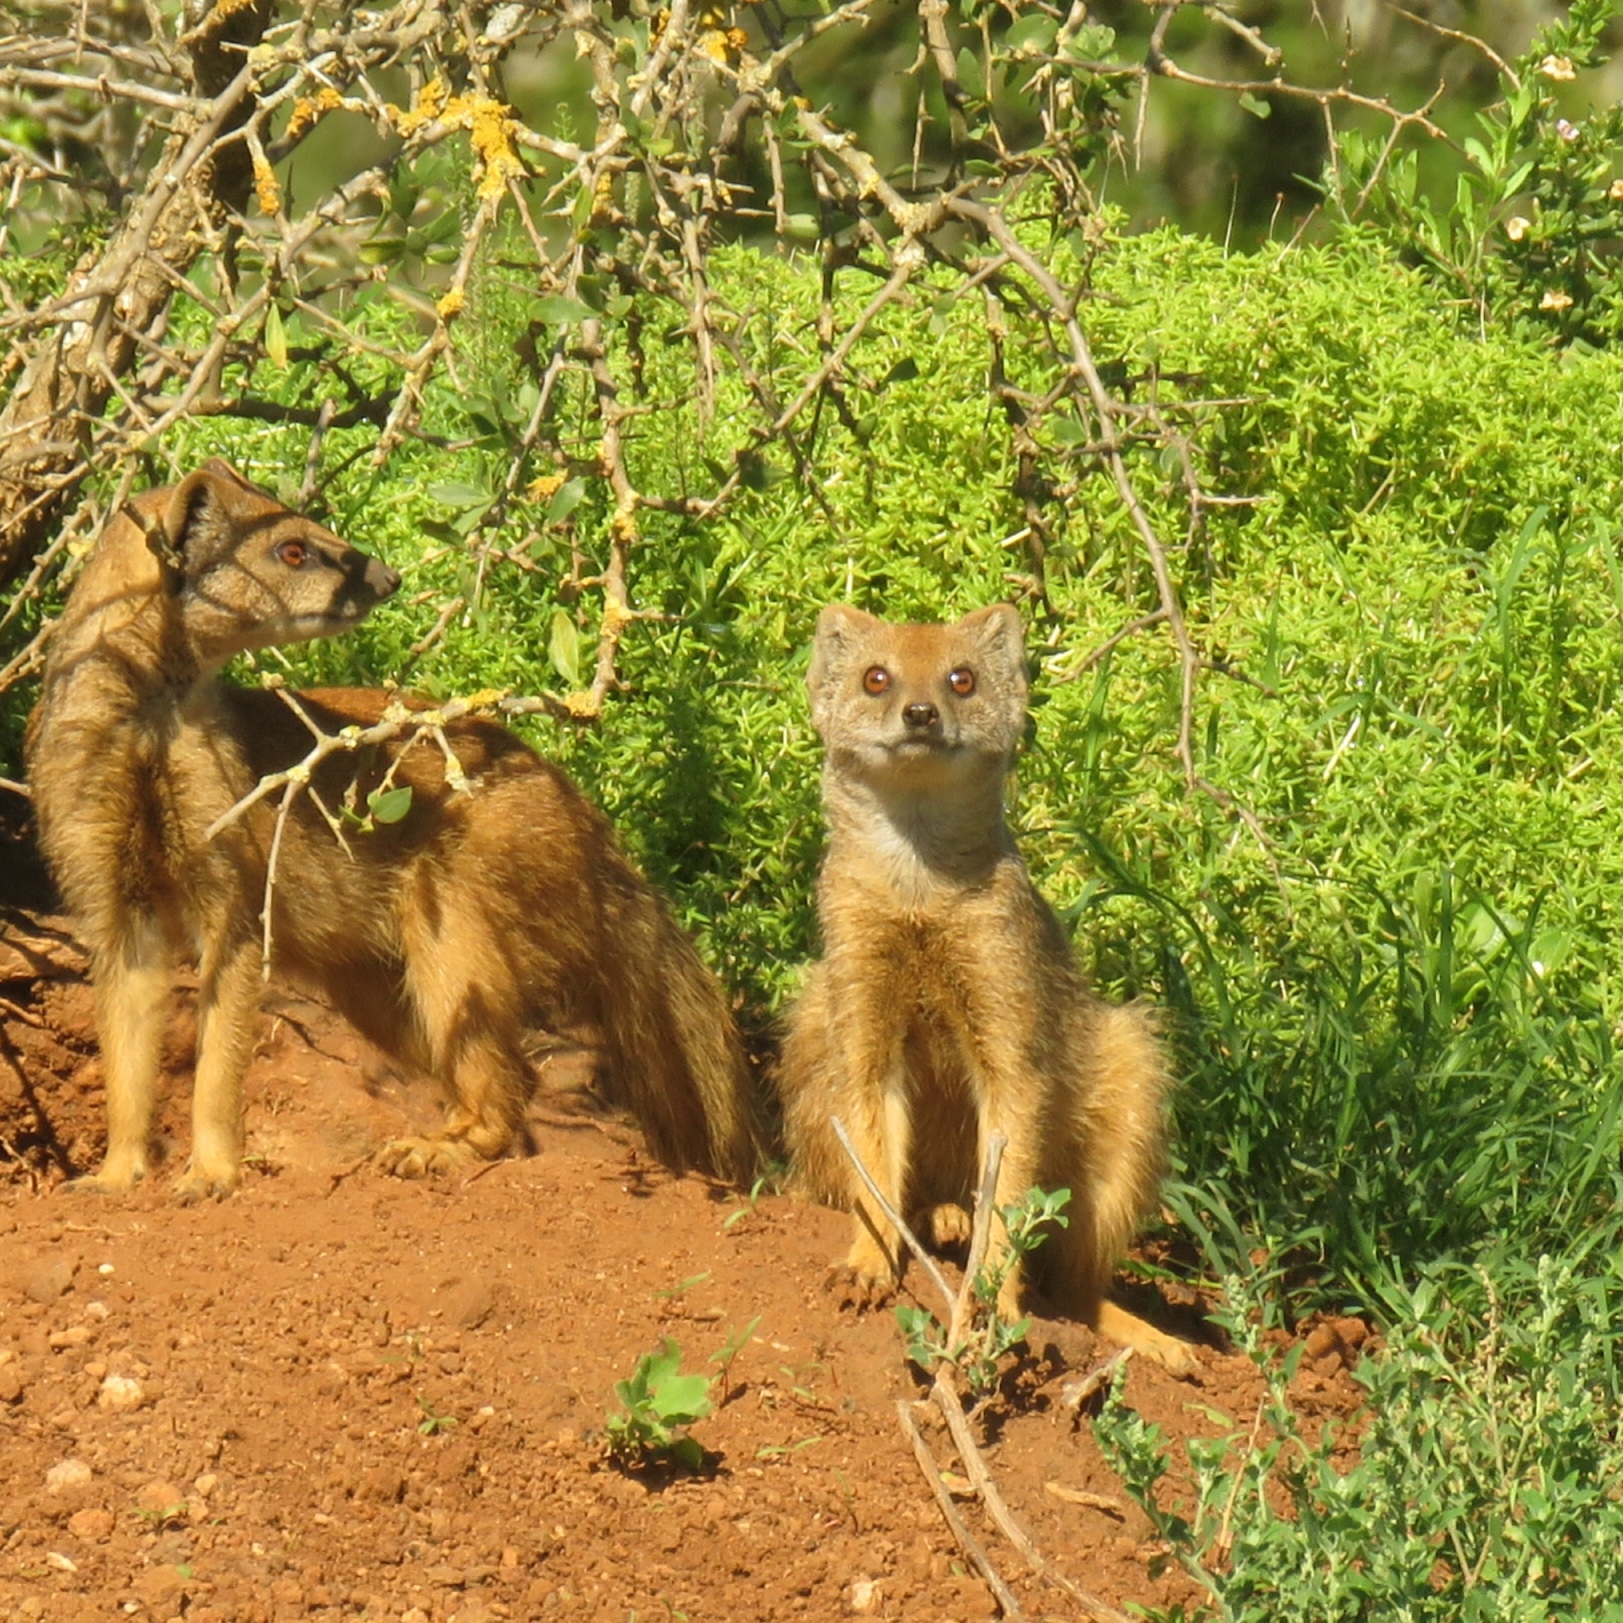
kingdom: Animalia
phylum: Chordata
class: Mammalia
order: Carnivora
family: Herpestidae
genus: Cynictis
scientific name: Cynictis penicillata
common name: Yellow mongoose
